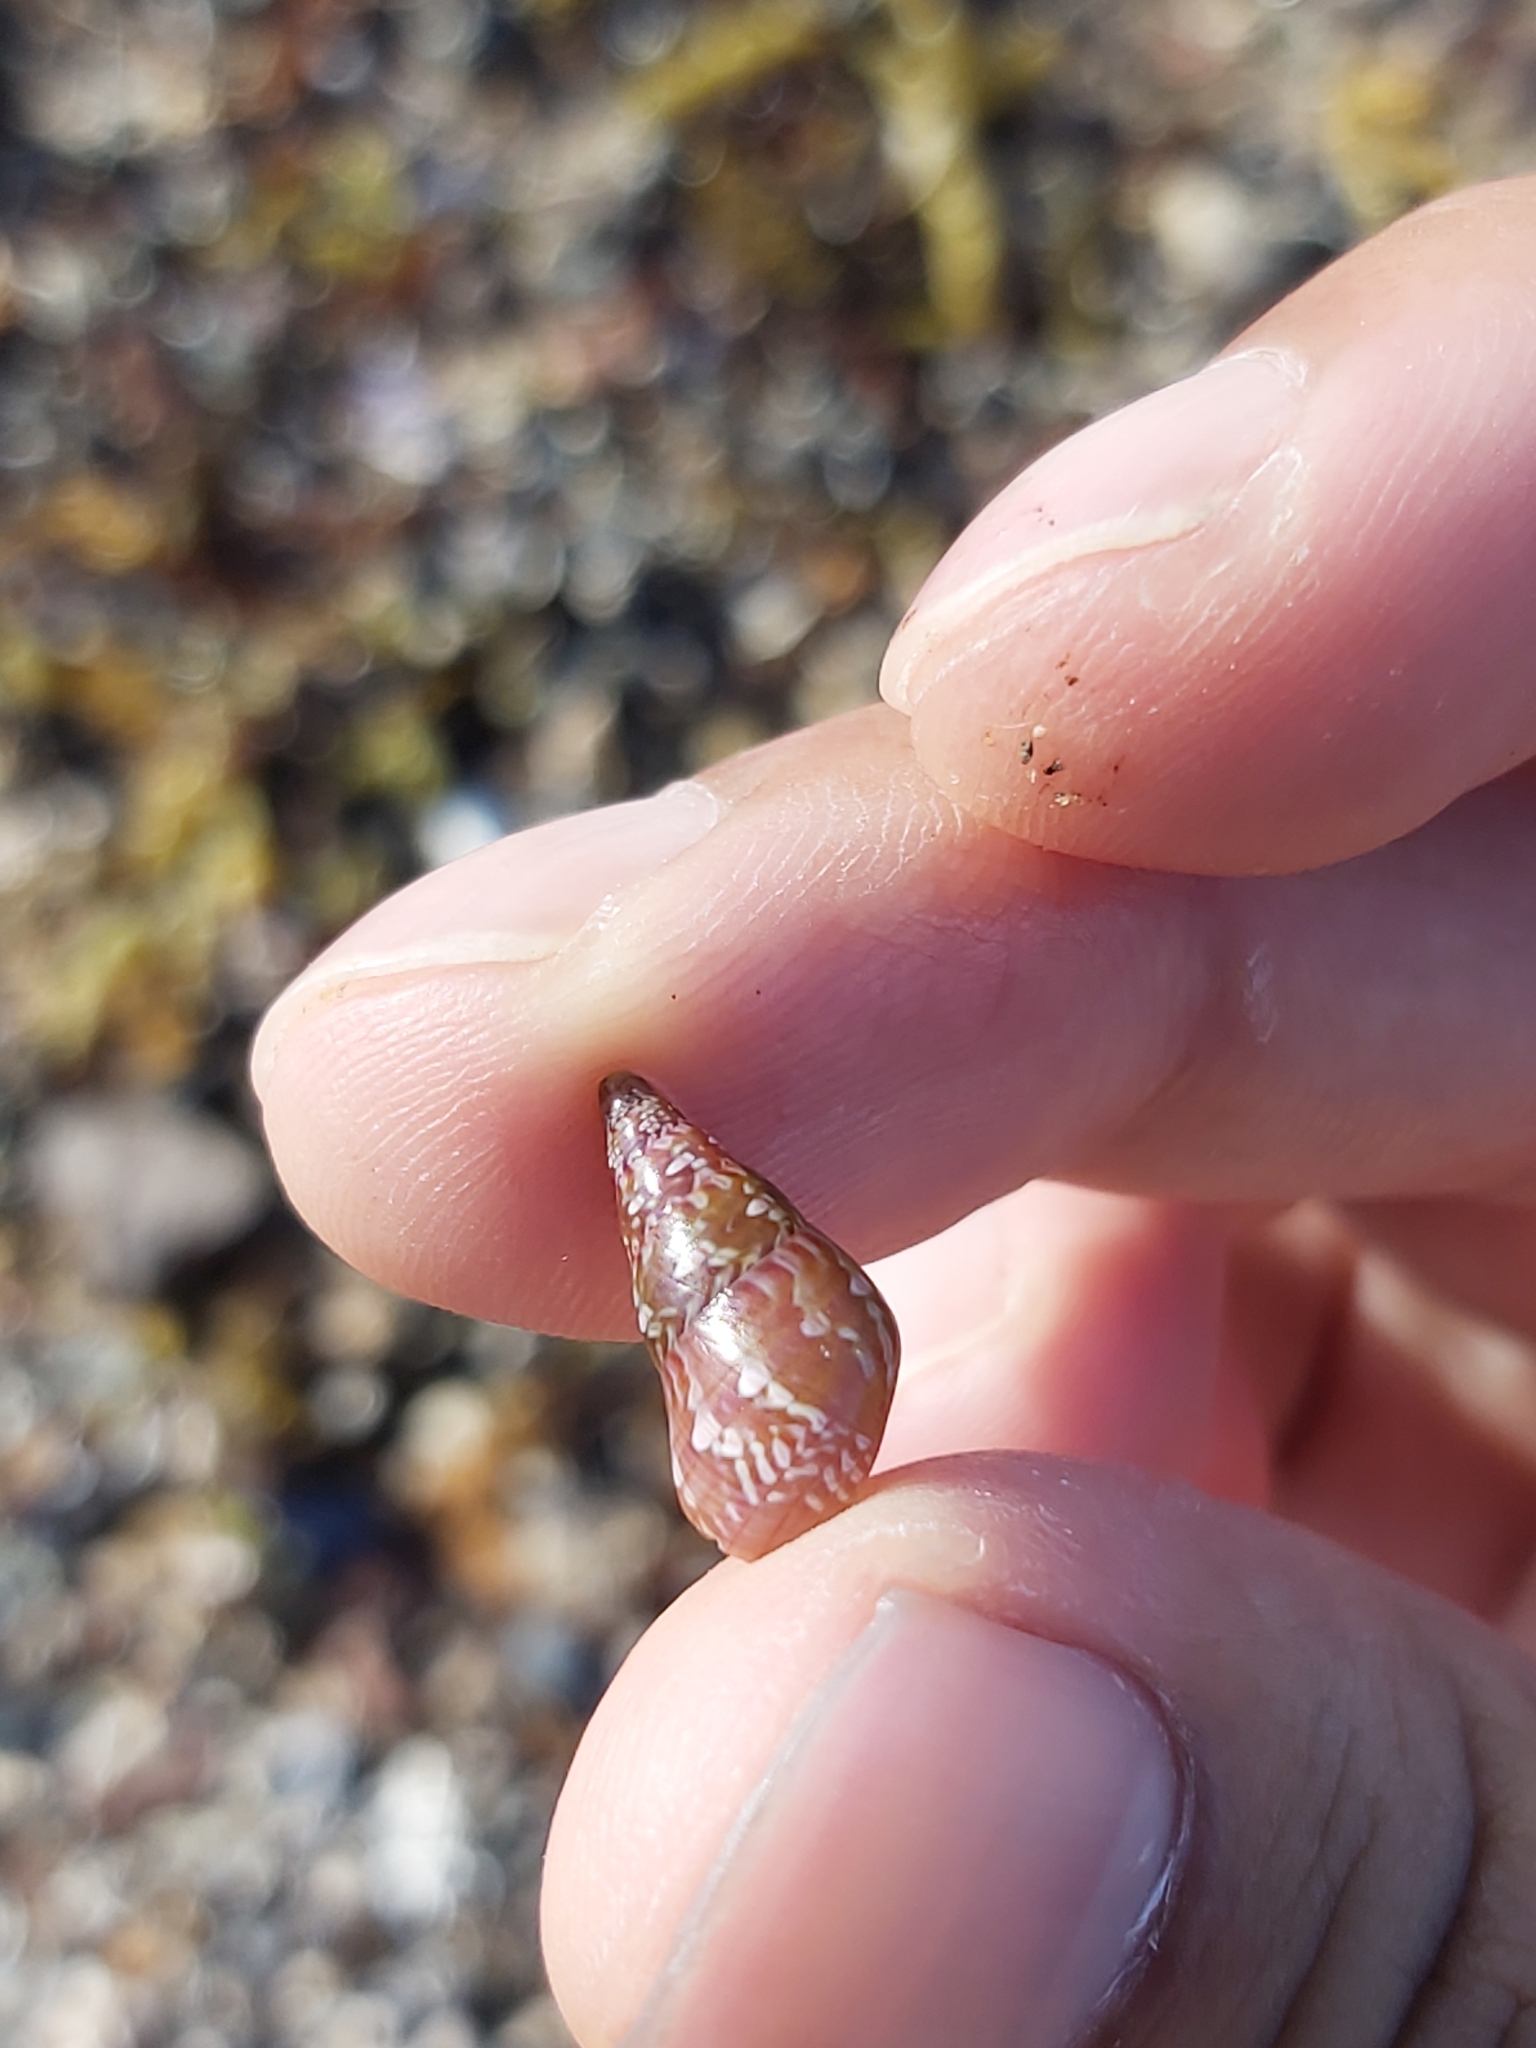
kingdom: Animalia
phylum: Mollusca
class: Gastropoda
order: Trochida
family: Trochidae
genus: Phasianotrochus
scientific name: Phasianotrochus eximius
